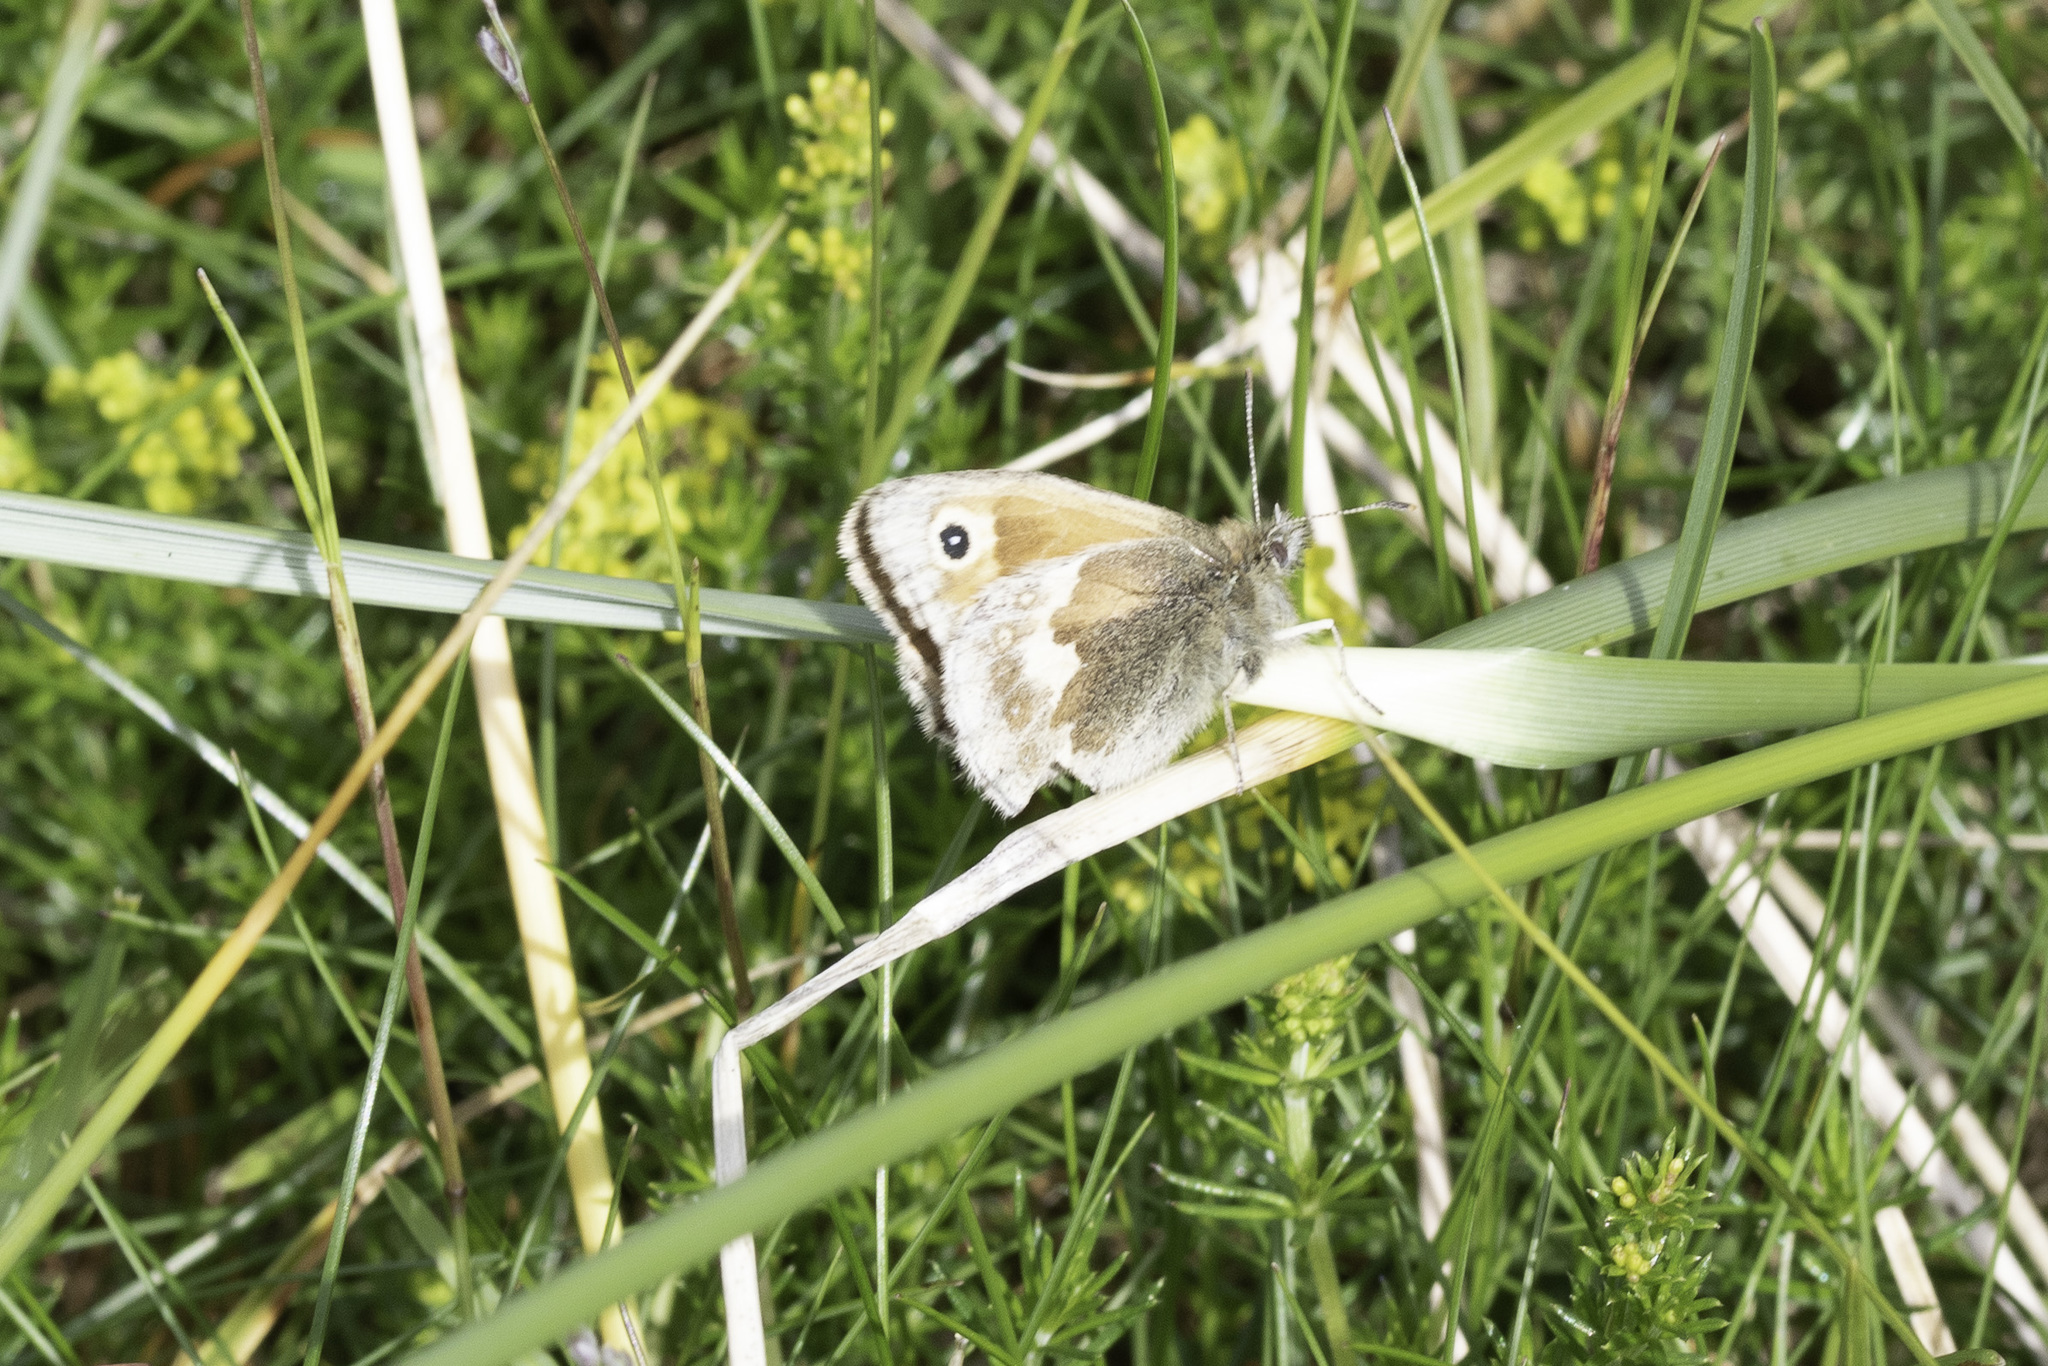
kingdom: Animalia
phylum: Arthropoda
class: Insecta
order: Lepidoptera
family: Nymphalidae
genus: Coenonympha
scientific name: Coenonympha pamphilus
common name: Small heath
